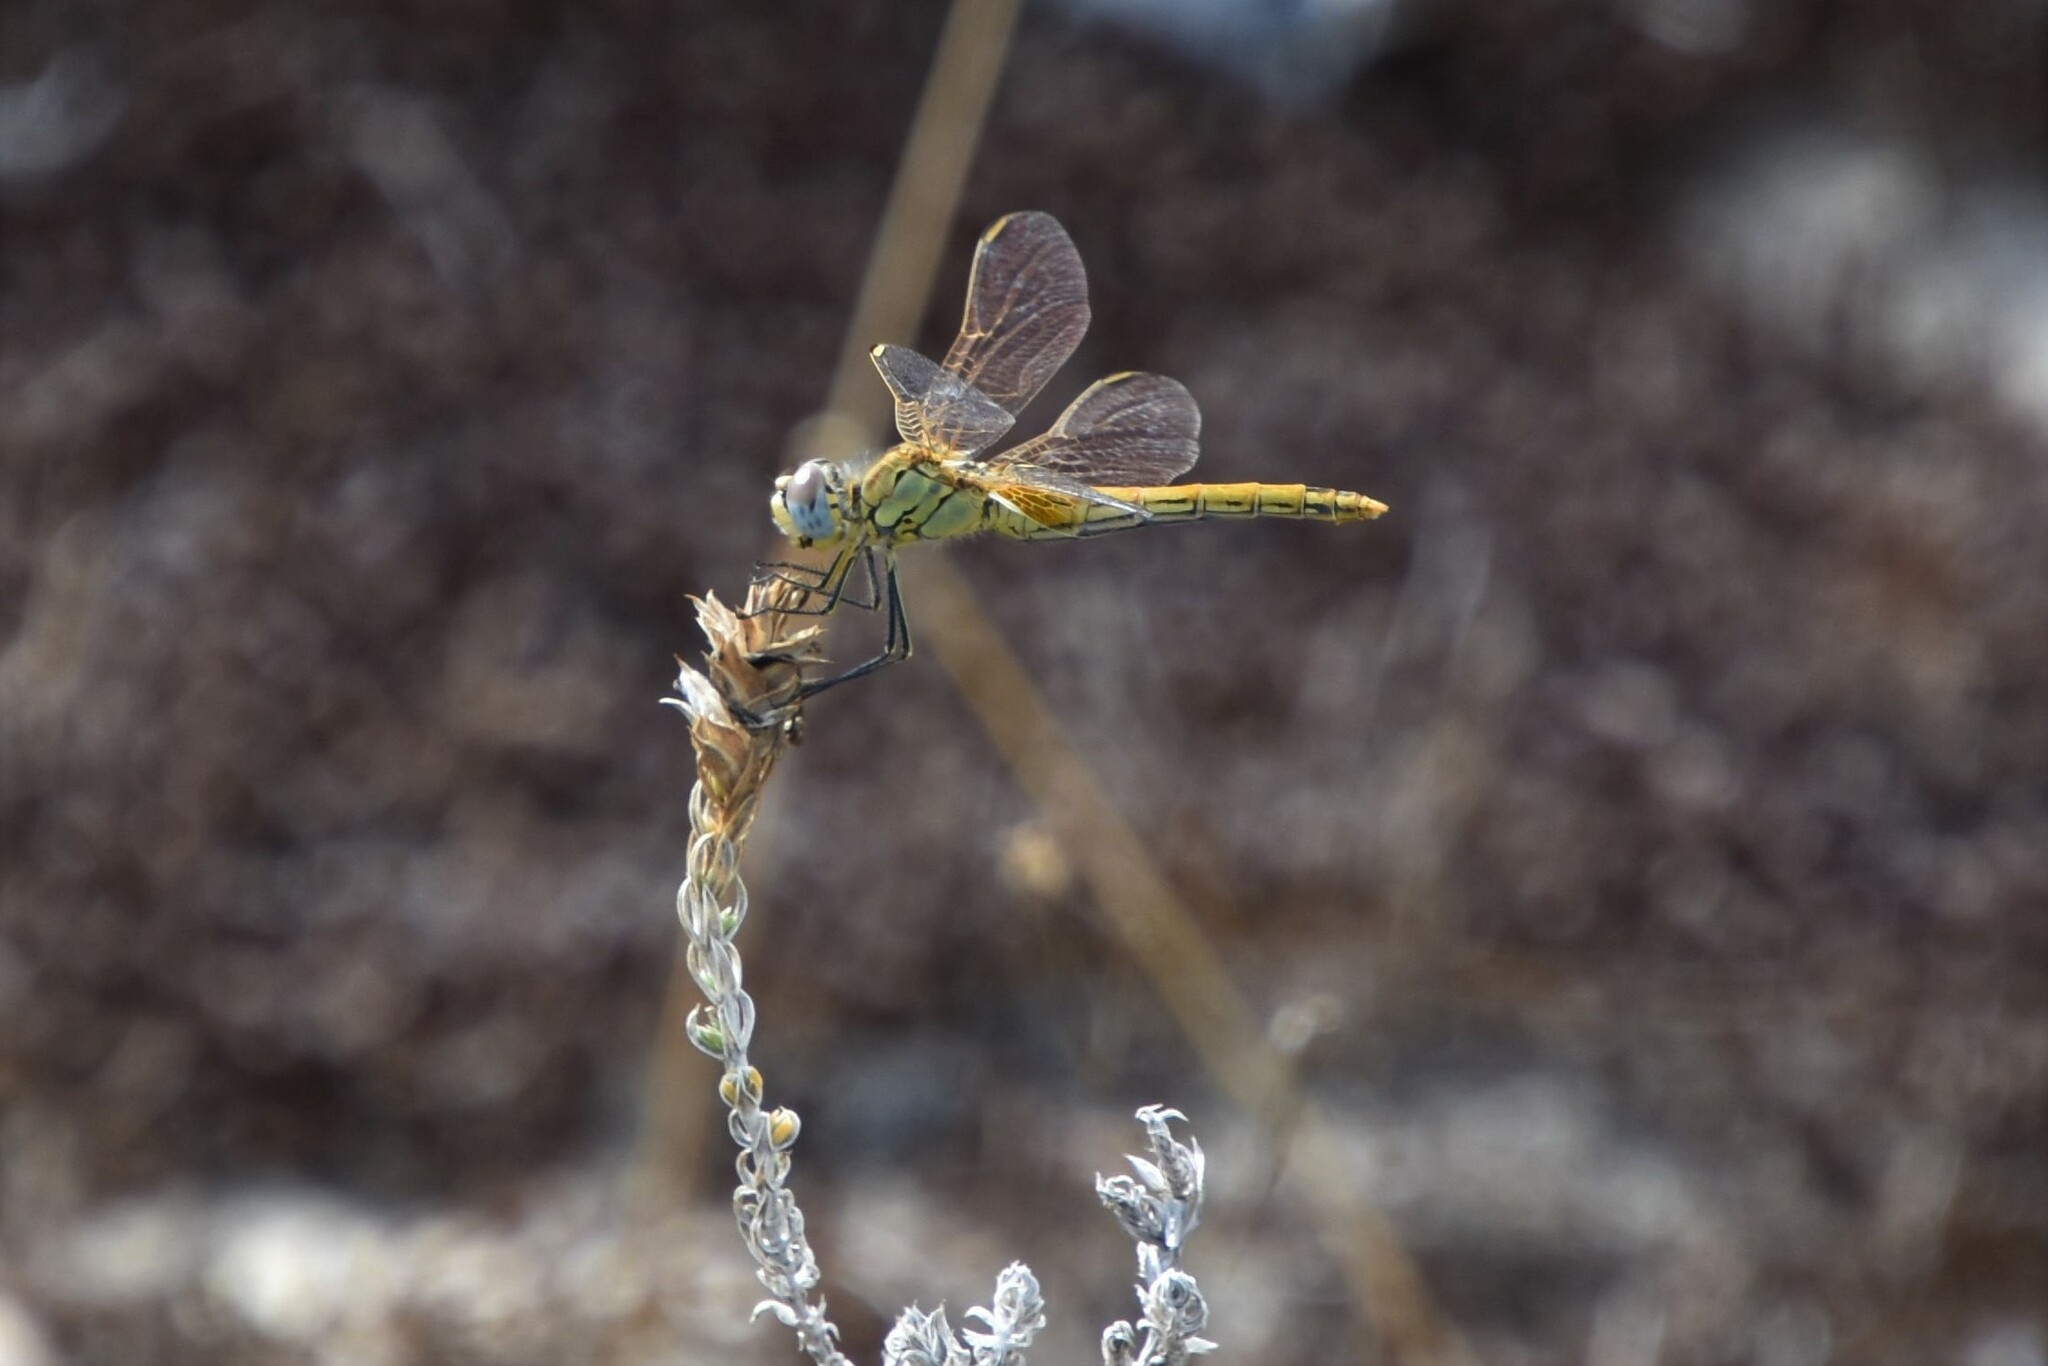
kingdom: Animalia
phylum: Arthropoda
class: Insecta
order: Odonata
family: Libellulidae
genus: Sympetrum
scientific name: Sympetrum fonscolombii
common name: Red-veined darter
